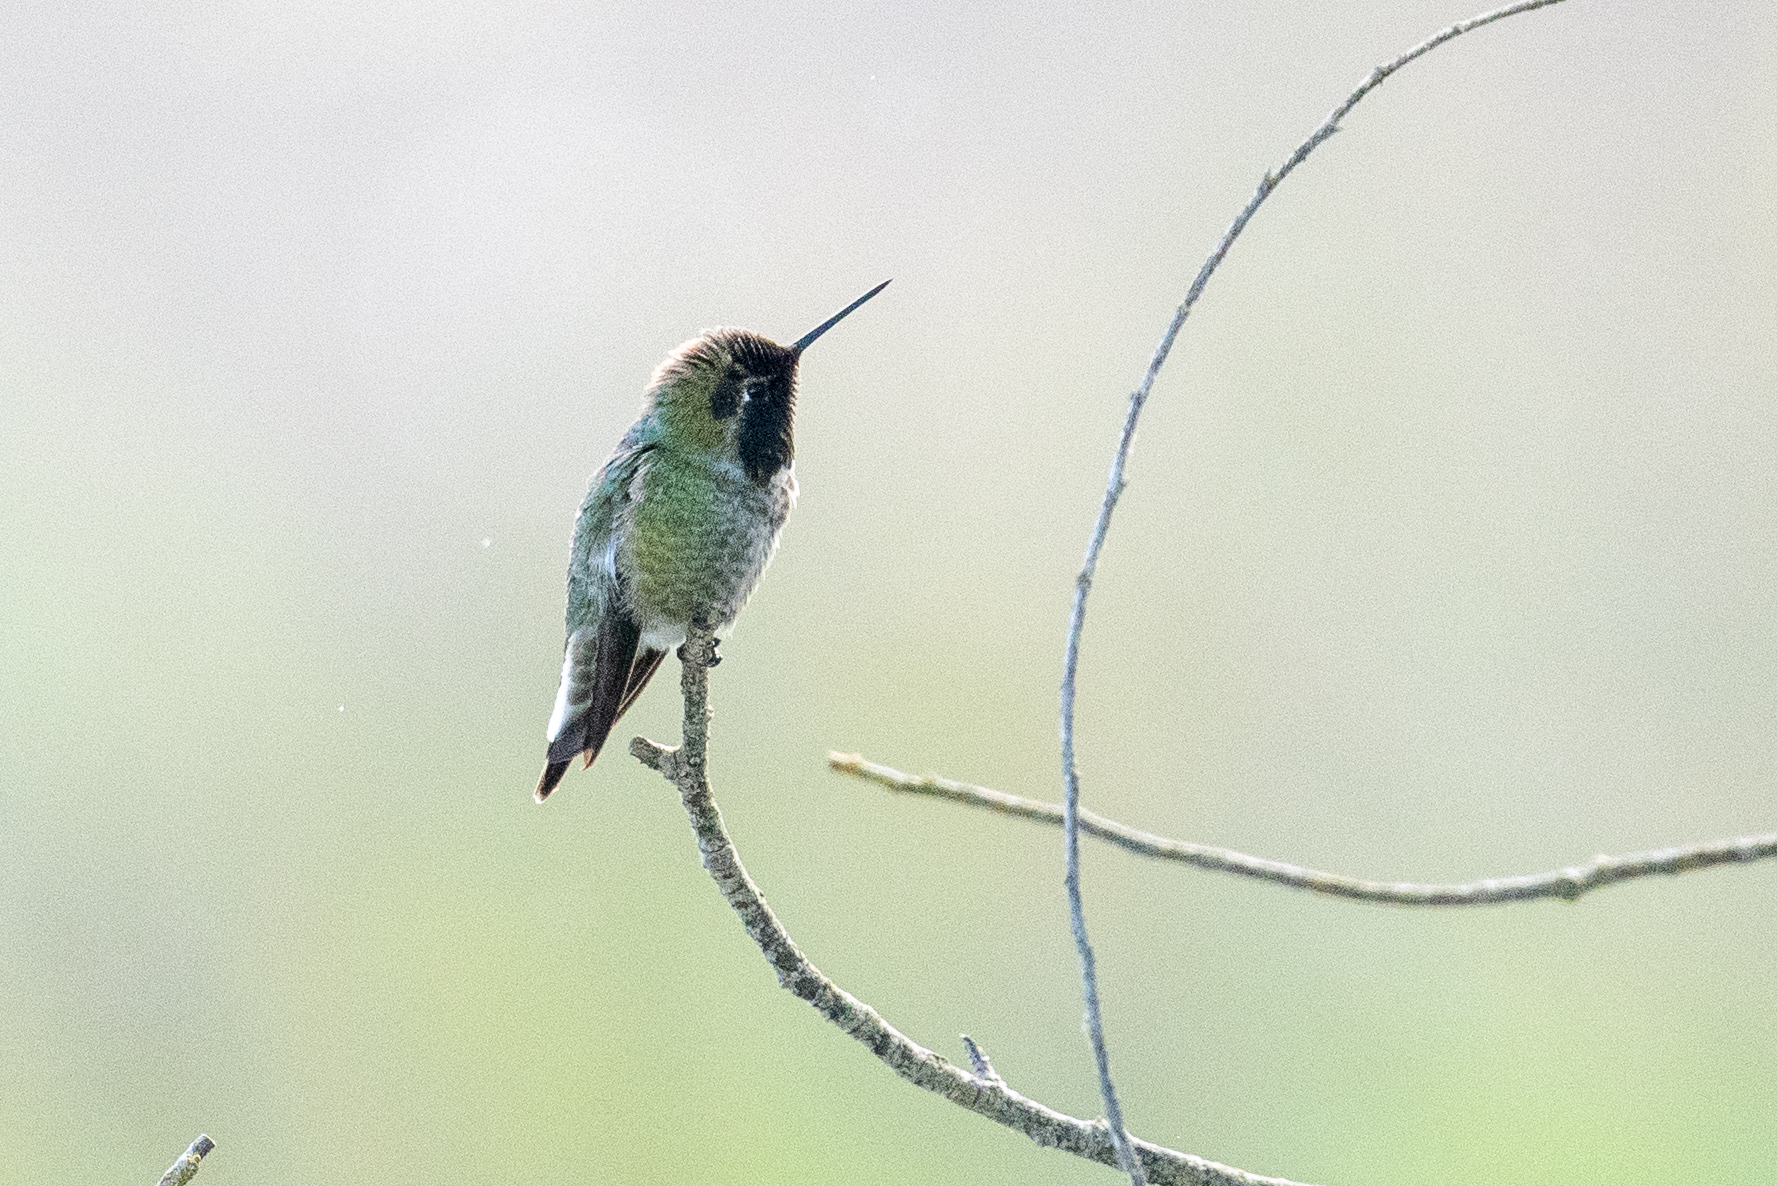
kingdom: Animalia
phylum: Chordata
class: Aves
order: Apodiformes
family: Trochilidae
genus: Calypte
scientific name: Calypte anna
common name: Anna's hummingbird
